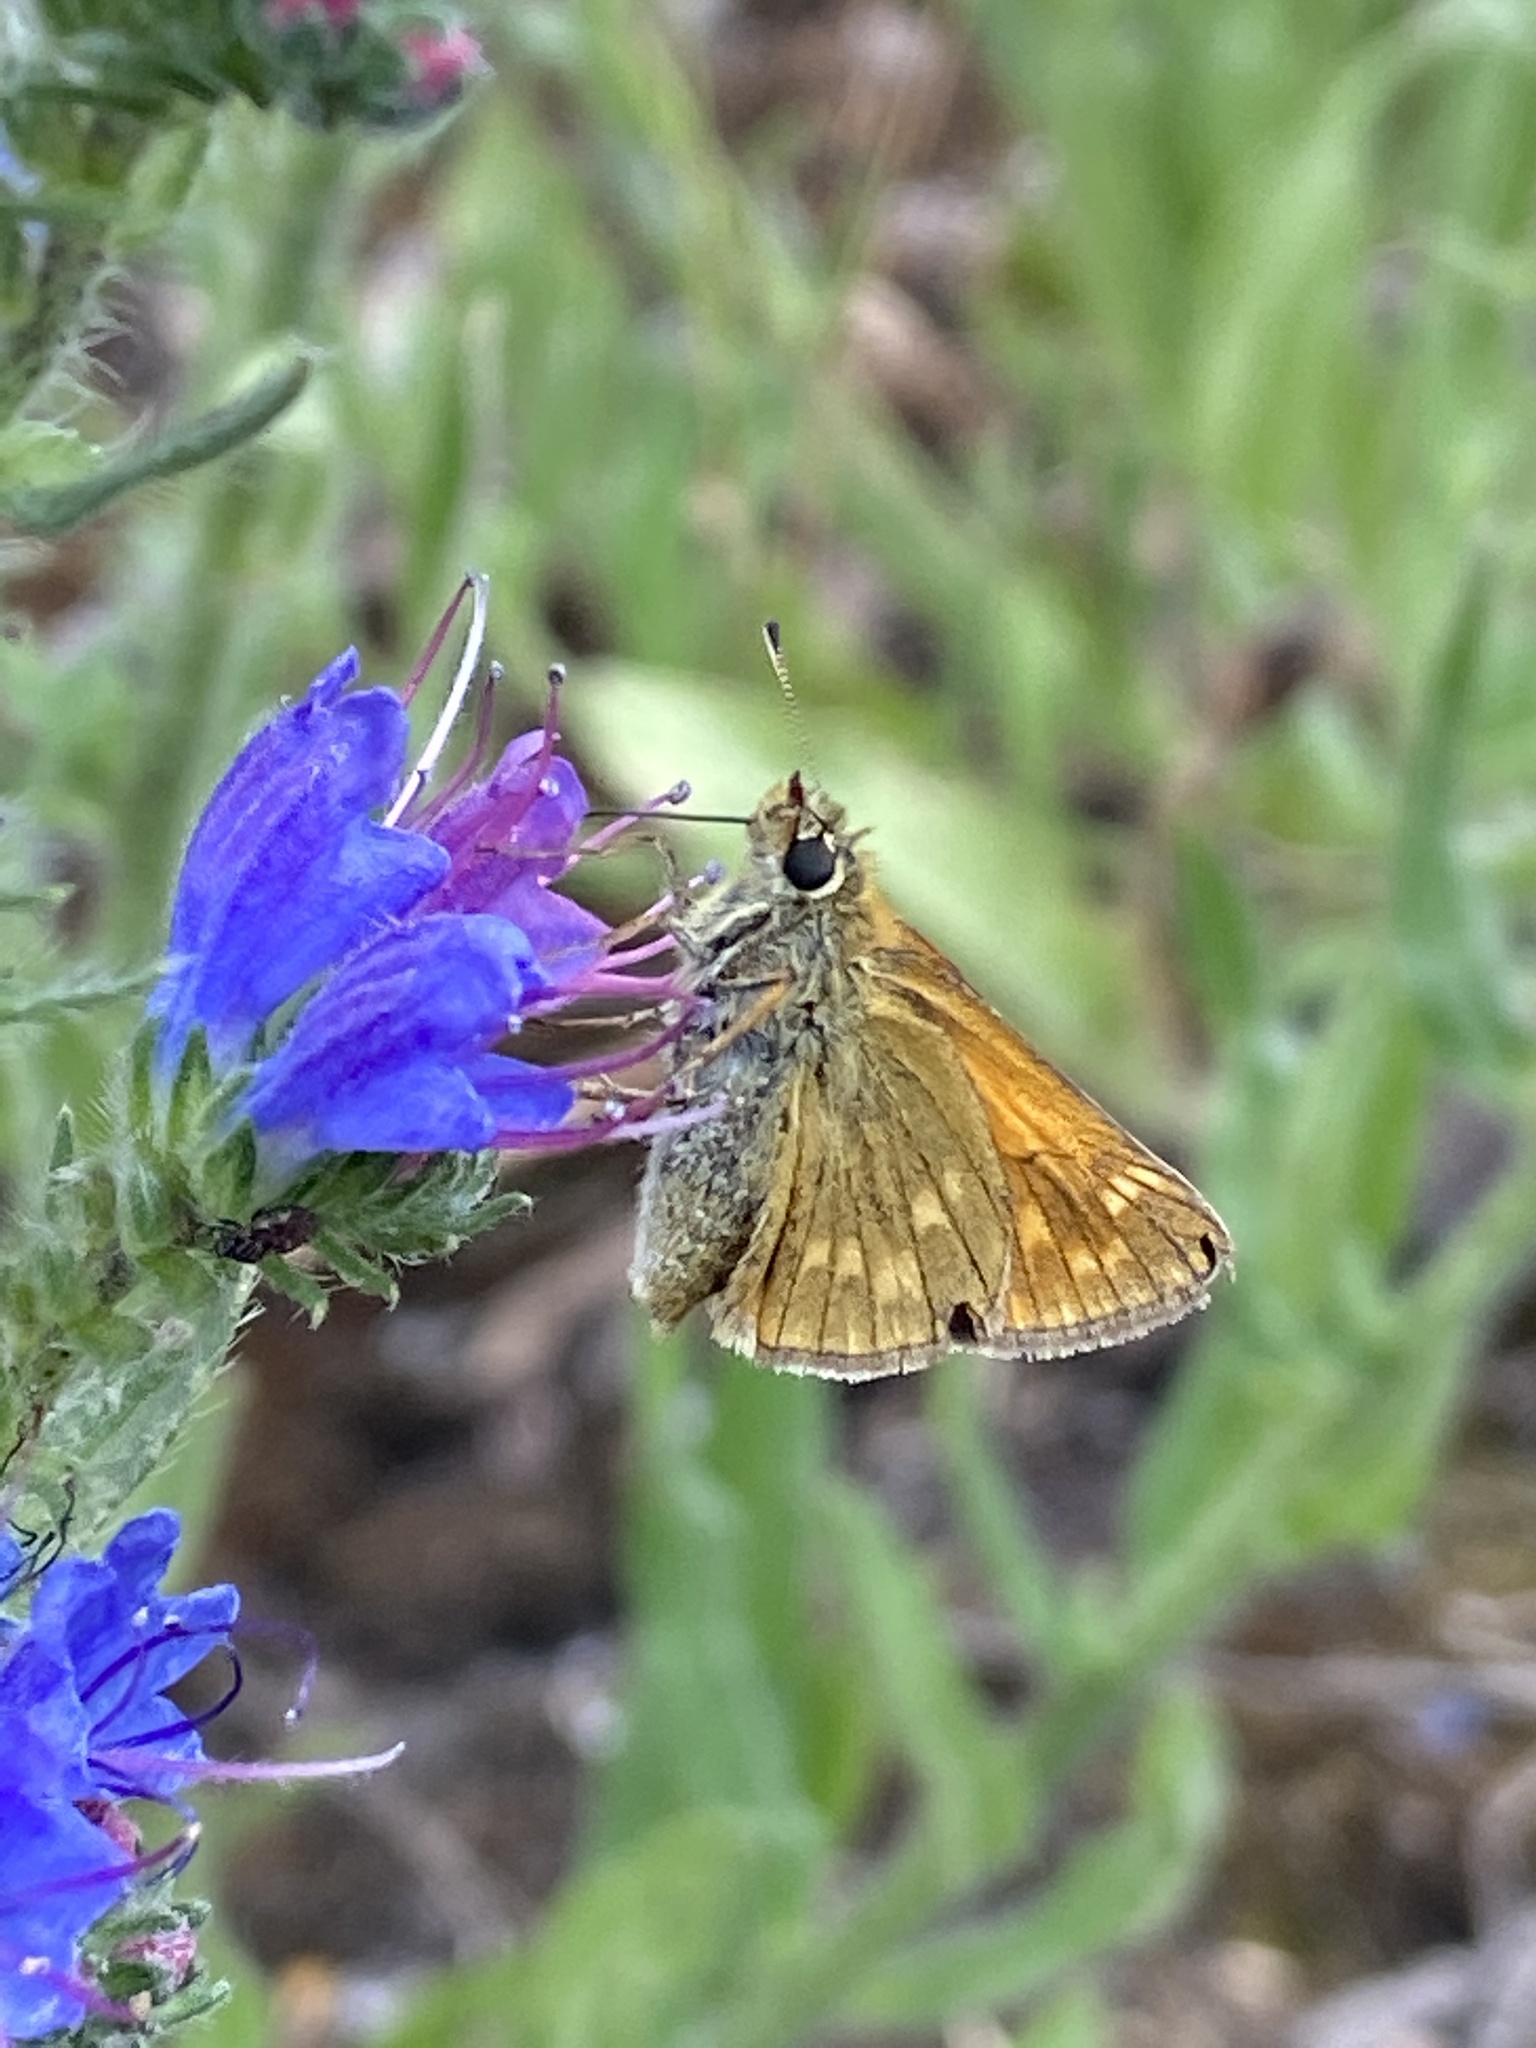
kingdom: Animalia
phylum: Arthropoda
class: Insecta
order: Lepidoptera
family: Hesperiidae
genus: Ochlodes
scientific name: Ochlodes venata
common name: Large skipper
